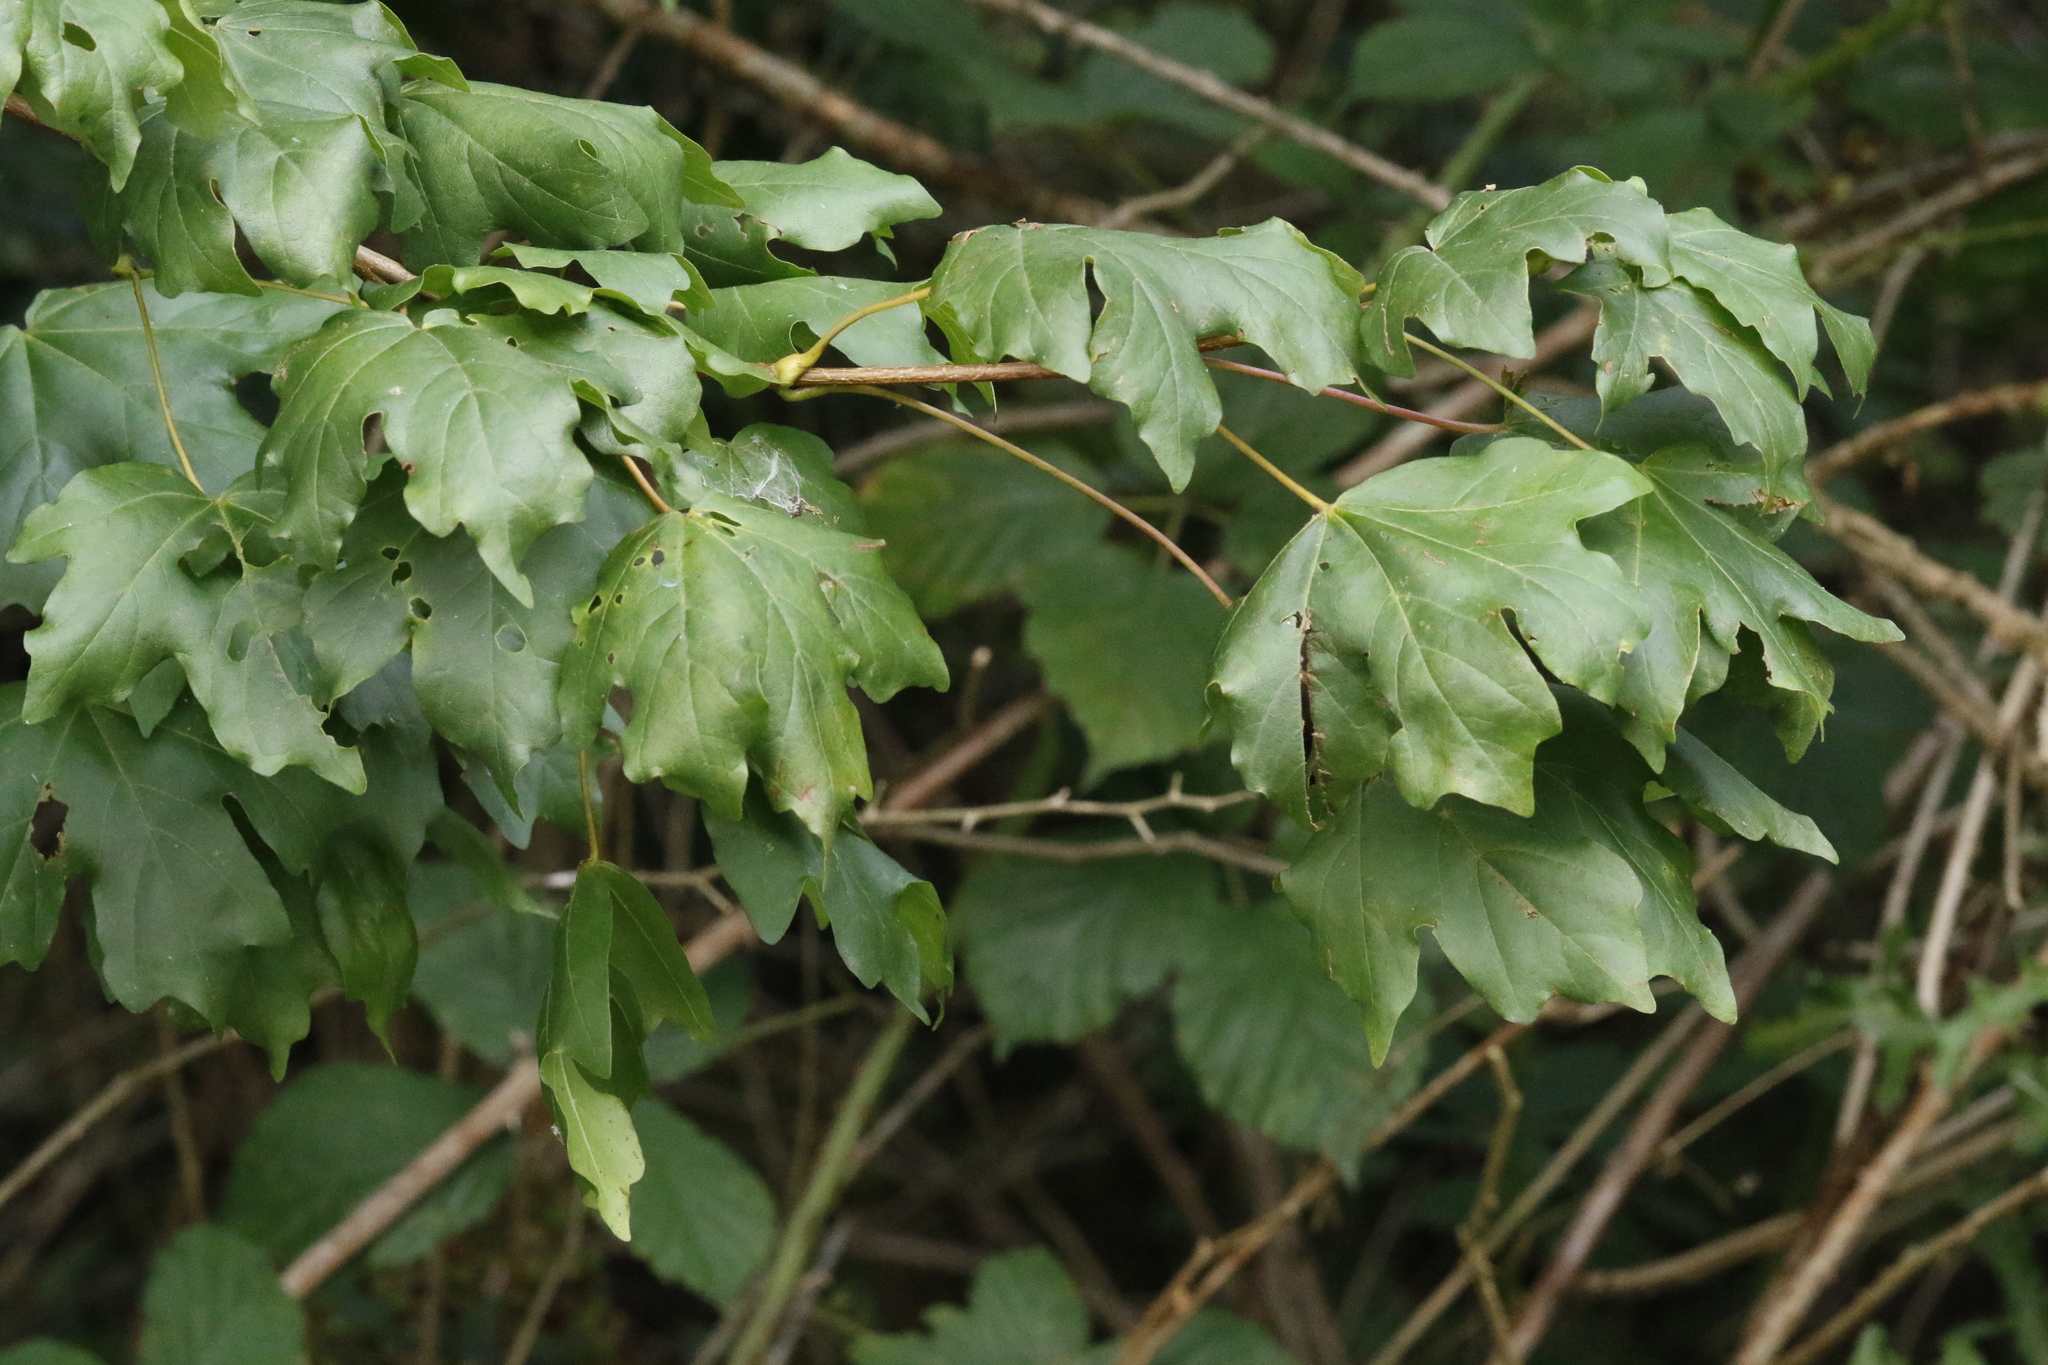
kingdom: Plantae
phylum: Tracheophyta
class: Magnoliopsida
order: Sapindales
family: Sapindaceae
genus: Acer
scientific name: Acer campestre
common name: Field maple
